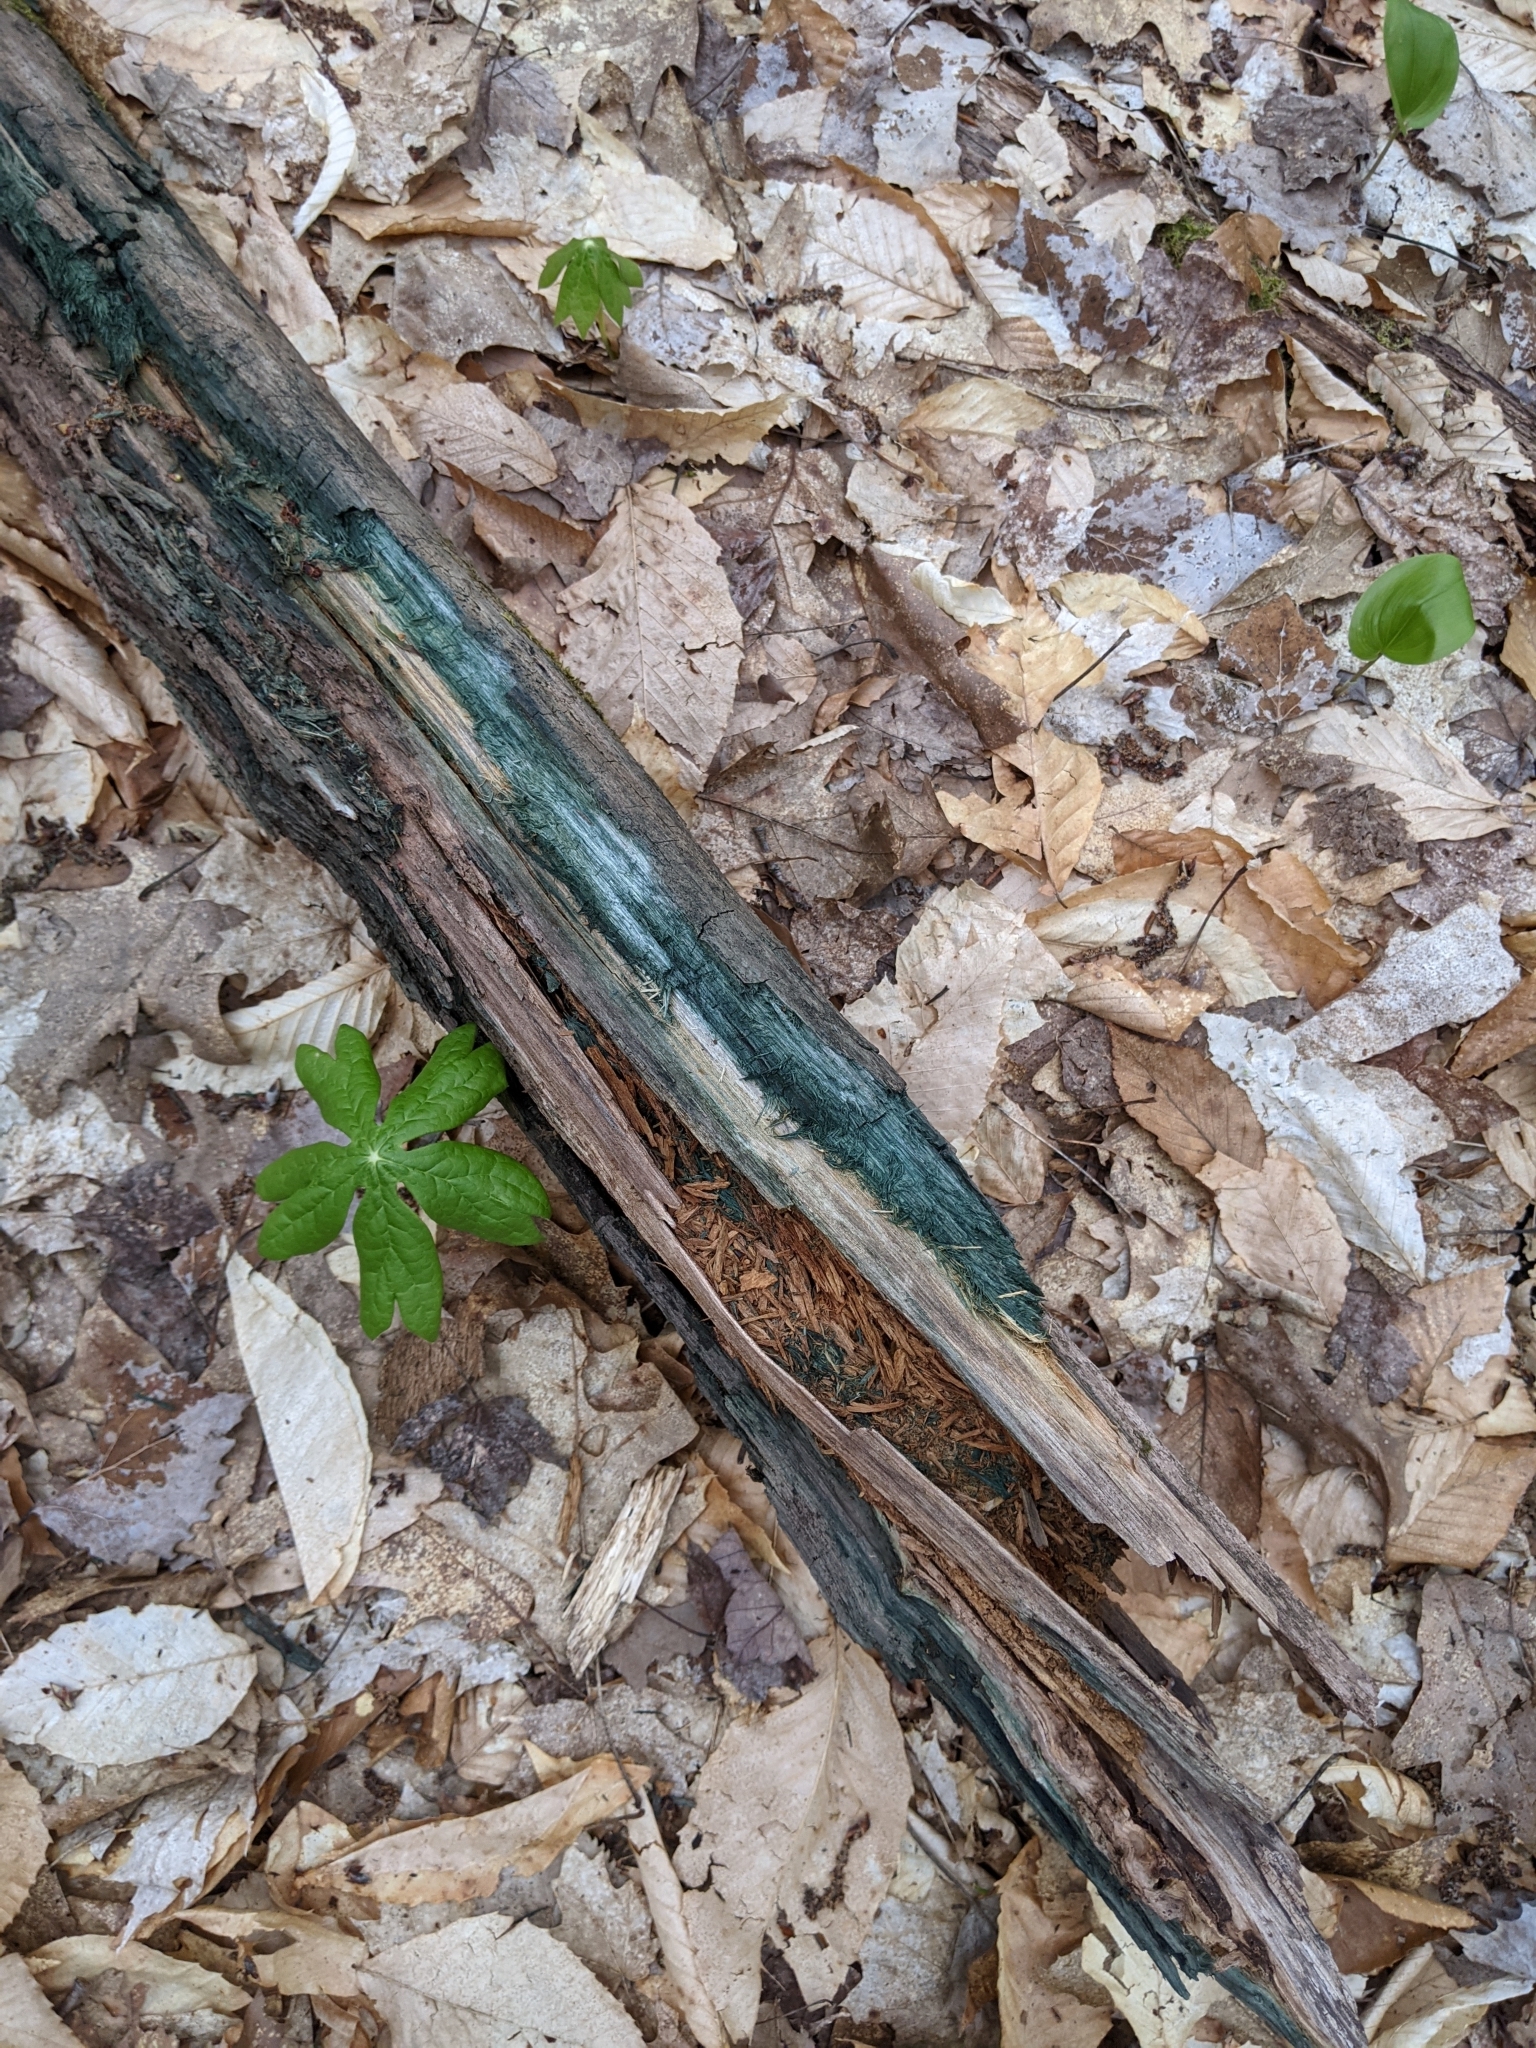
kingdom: Fungi
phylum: Ascomycota
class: Leotiomycetes
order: Helotiales
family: Chlorociboriaceae
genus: Chlorociboria
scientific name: Chlorociboria
